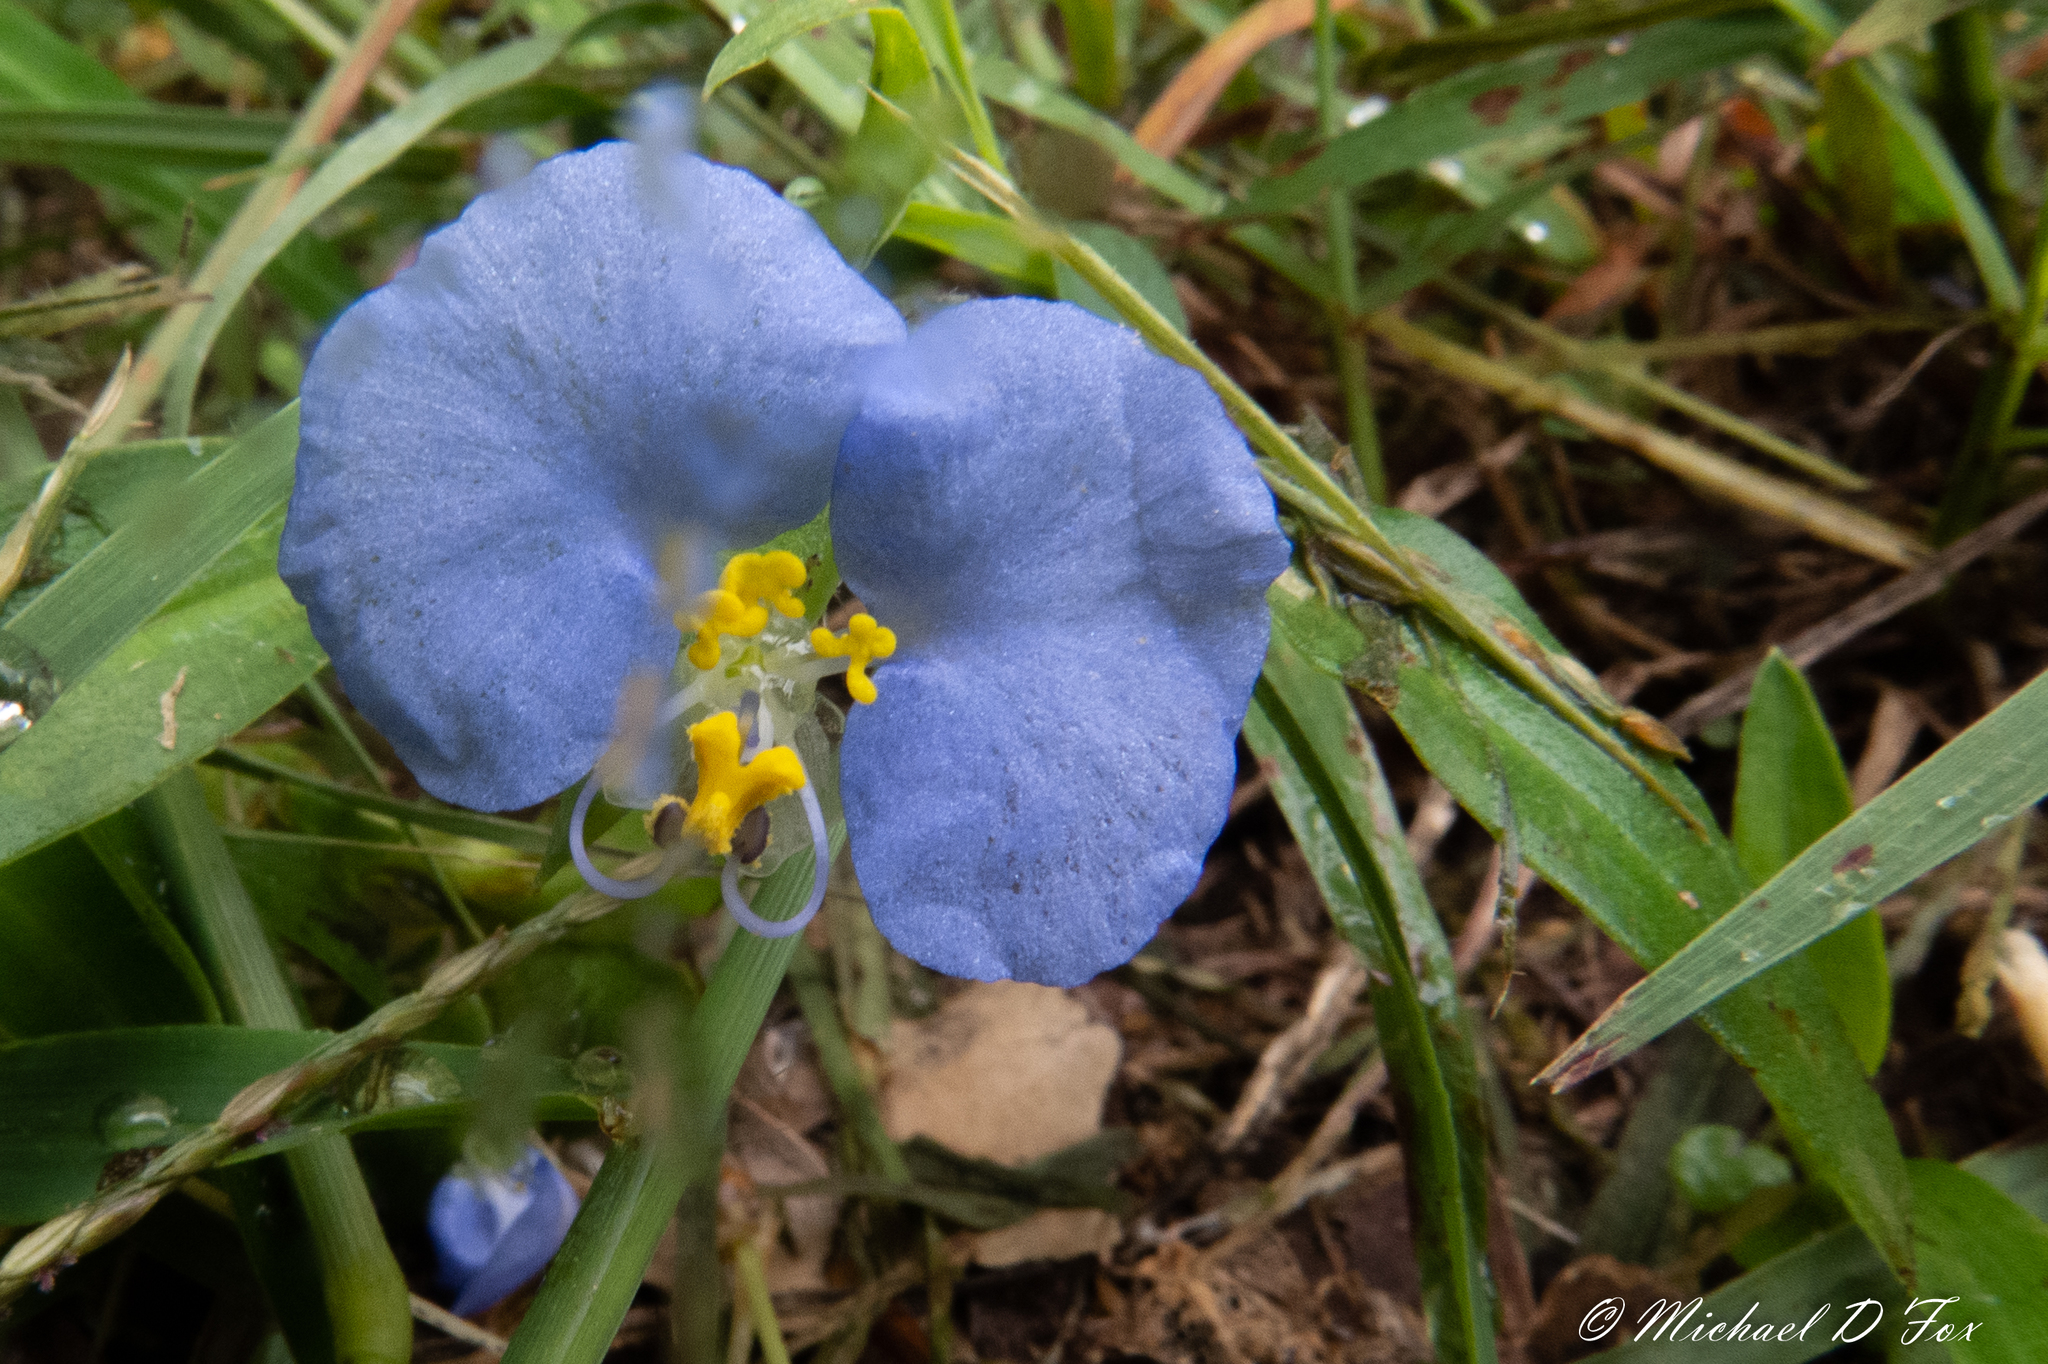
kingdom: Plantae
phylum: Tracheophyta
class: Liliopsida
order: Commelinales
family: Commelinaceae
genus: Commelina
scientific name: Commelina erecta
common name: Blousel blommetjie
